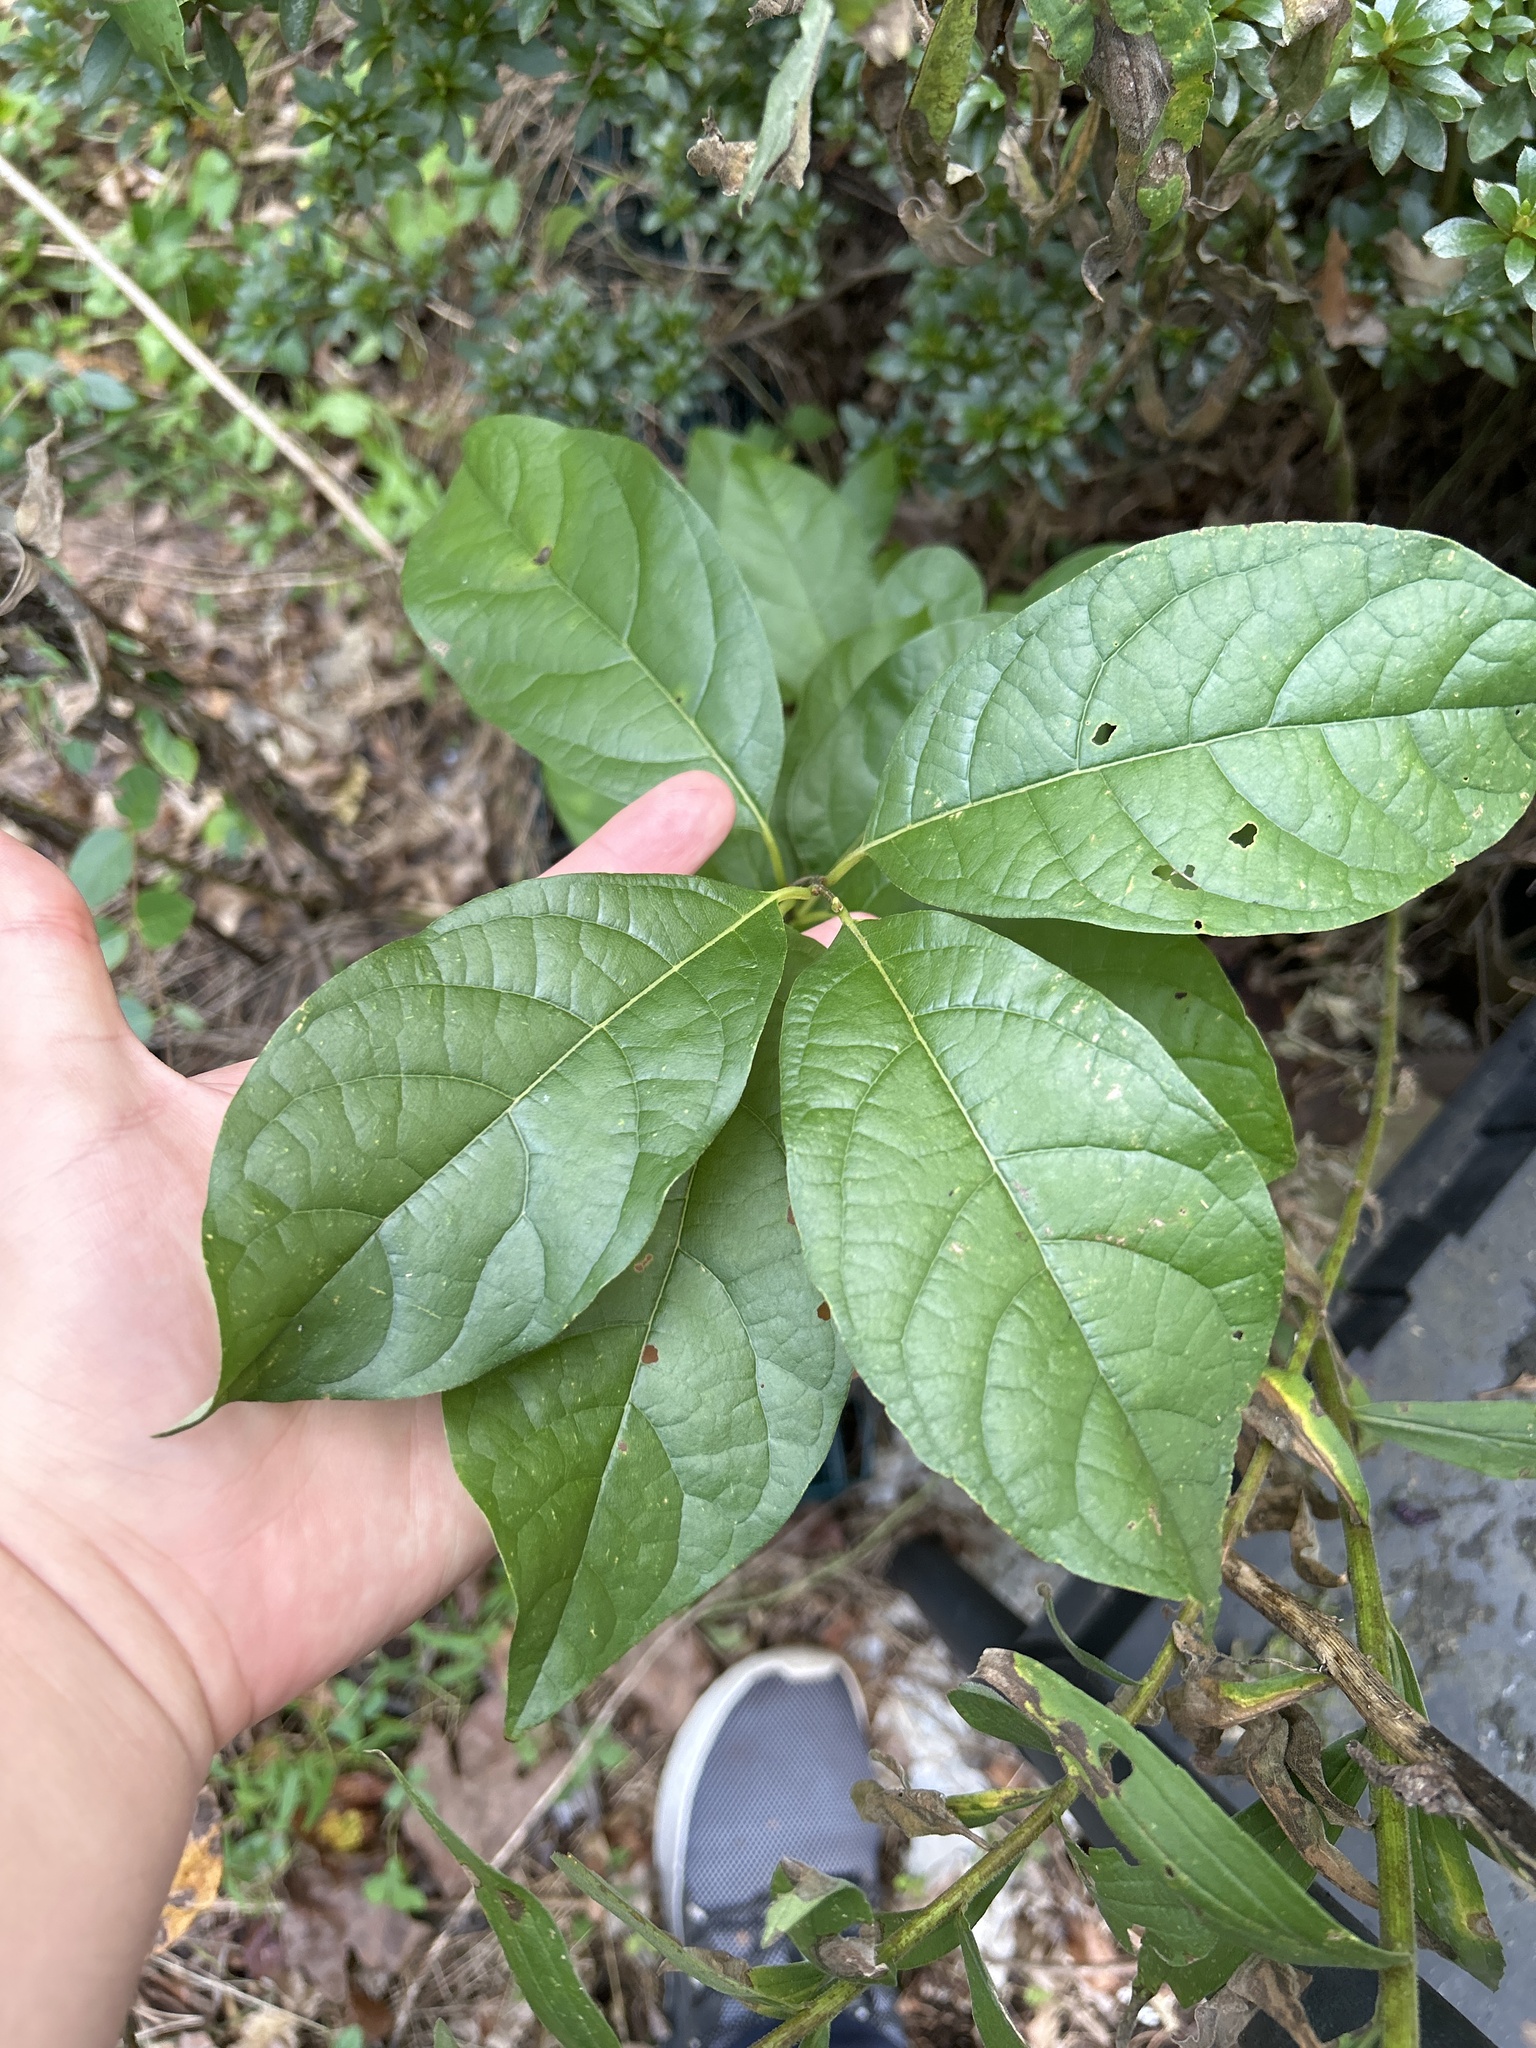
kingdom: Plantae
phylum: Tracheophyta
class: Magnoliopsida
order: Laurales
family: Lauraceae
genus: Lindera
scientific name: Lindera benzoin
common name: Spicebush
